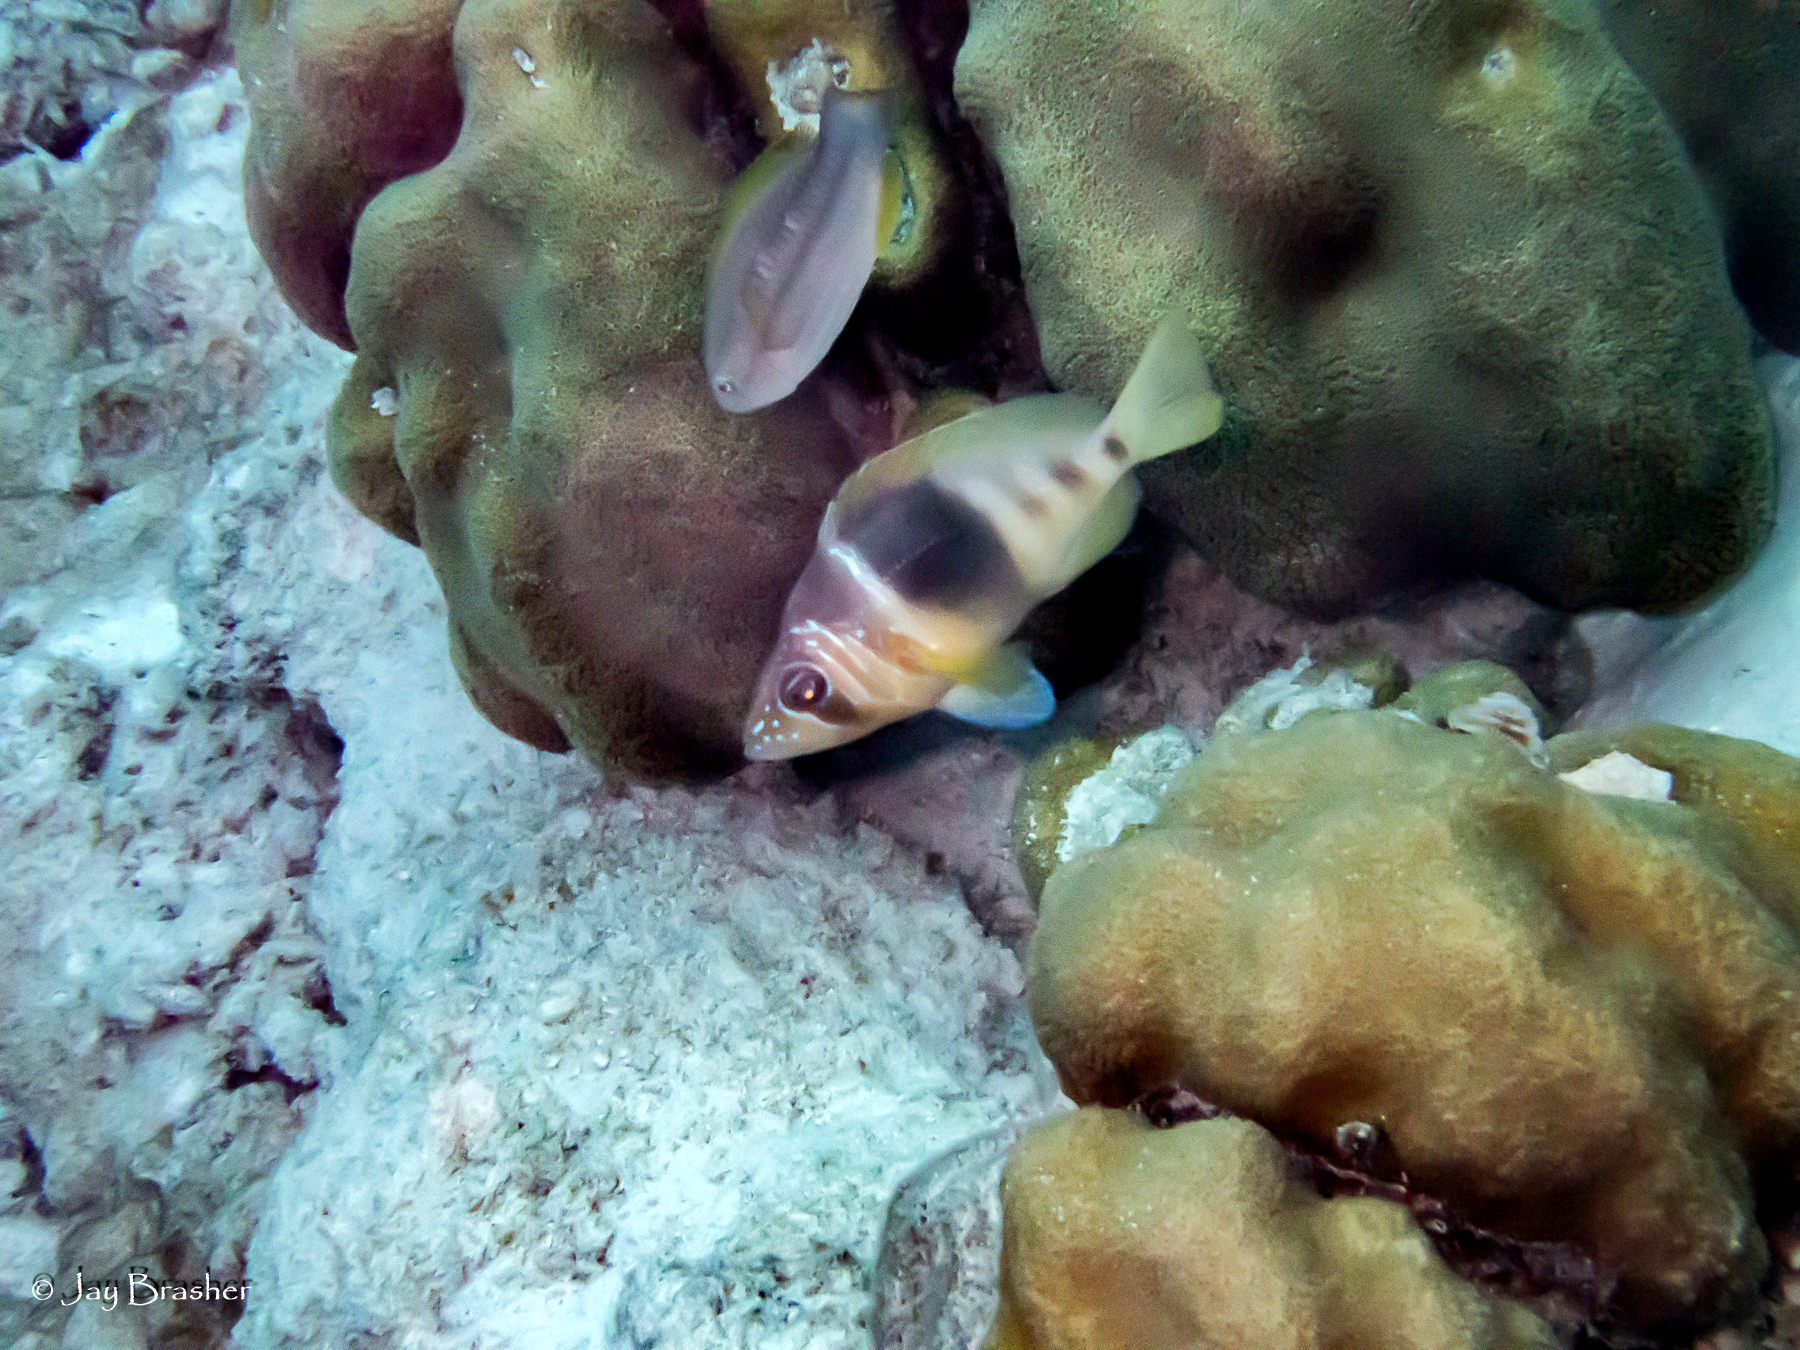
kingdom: Animalia
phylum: Chordata
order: Perciformes
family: Serranidae
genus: Hypoplectrus
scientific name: Hypoplectrus puella
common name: Barred hamlet
